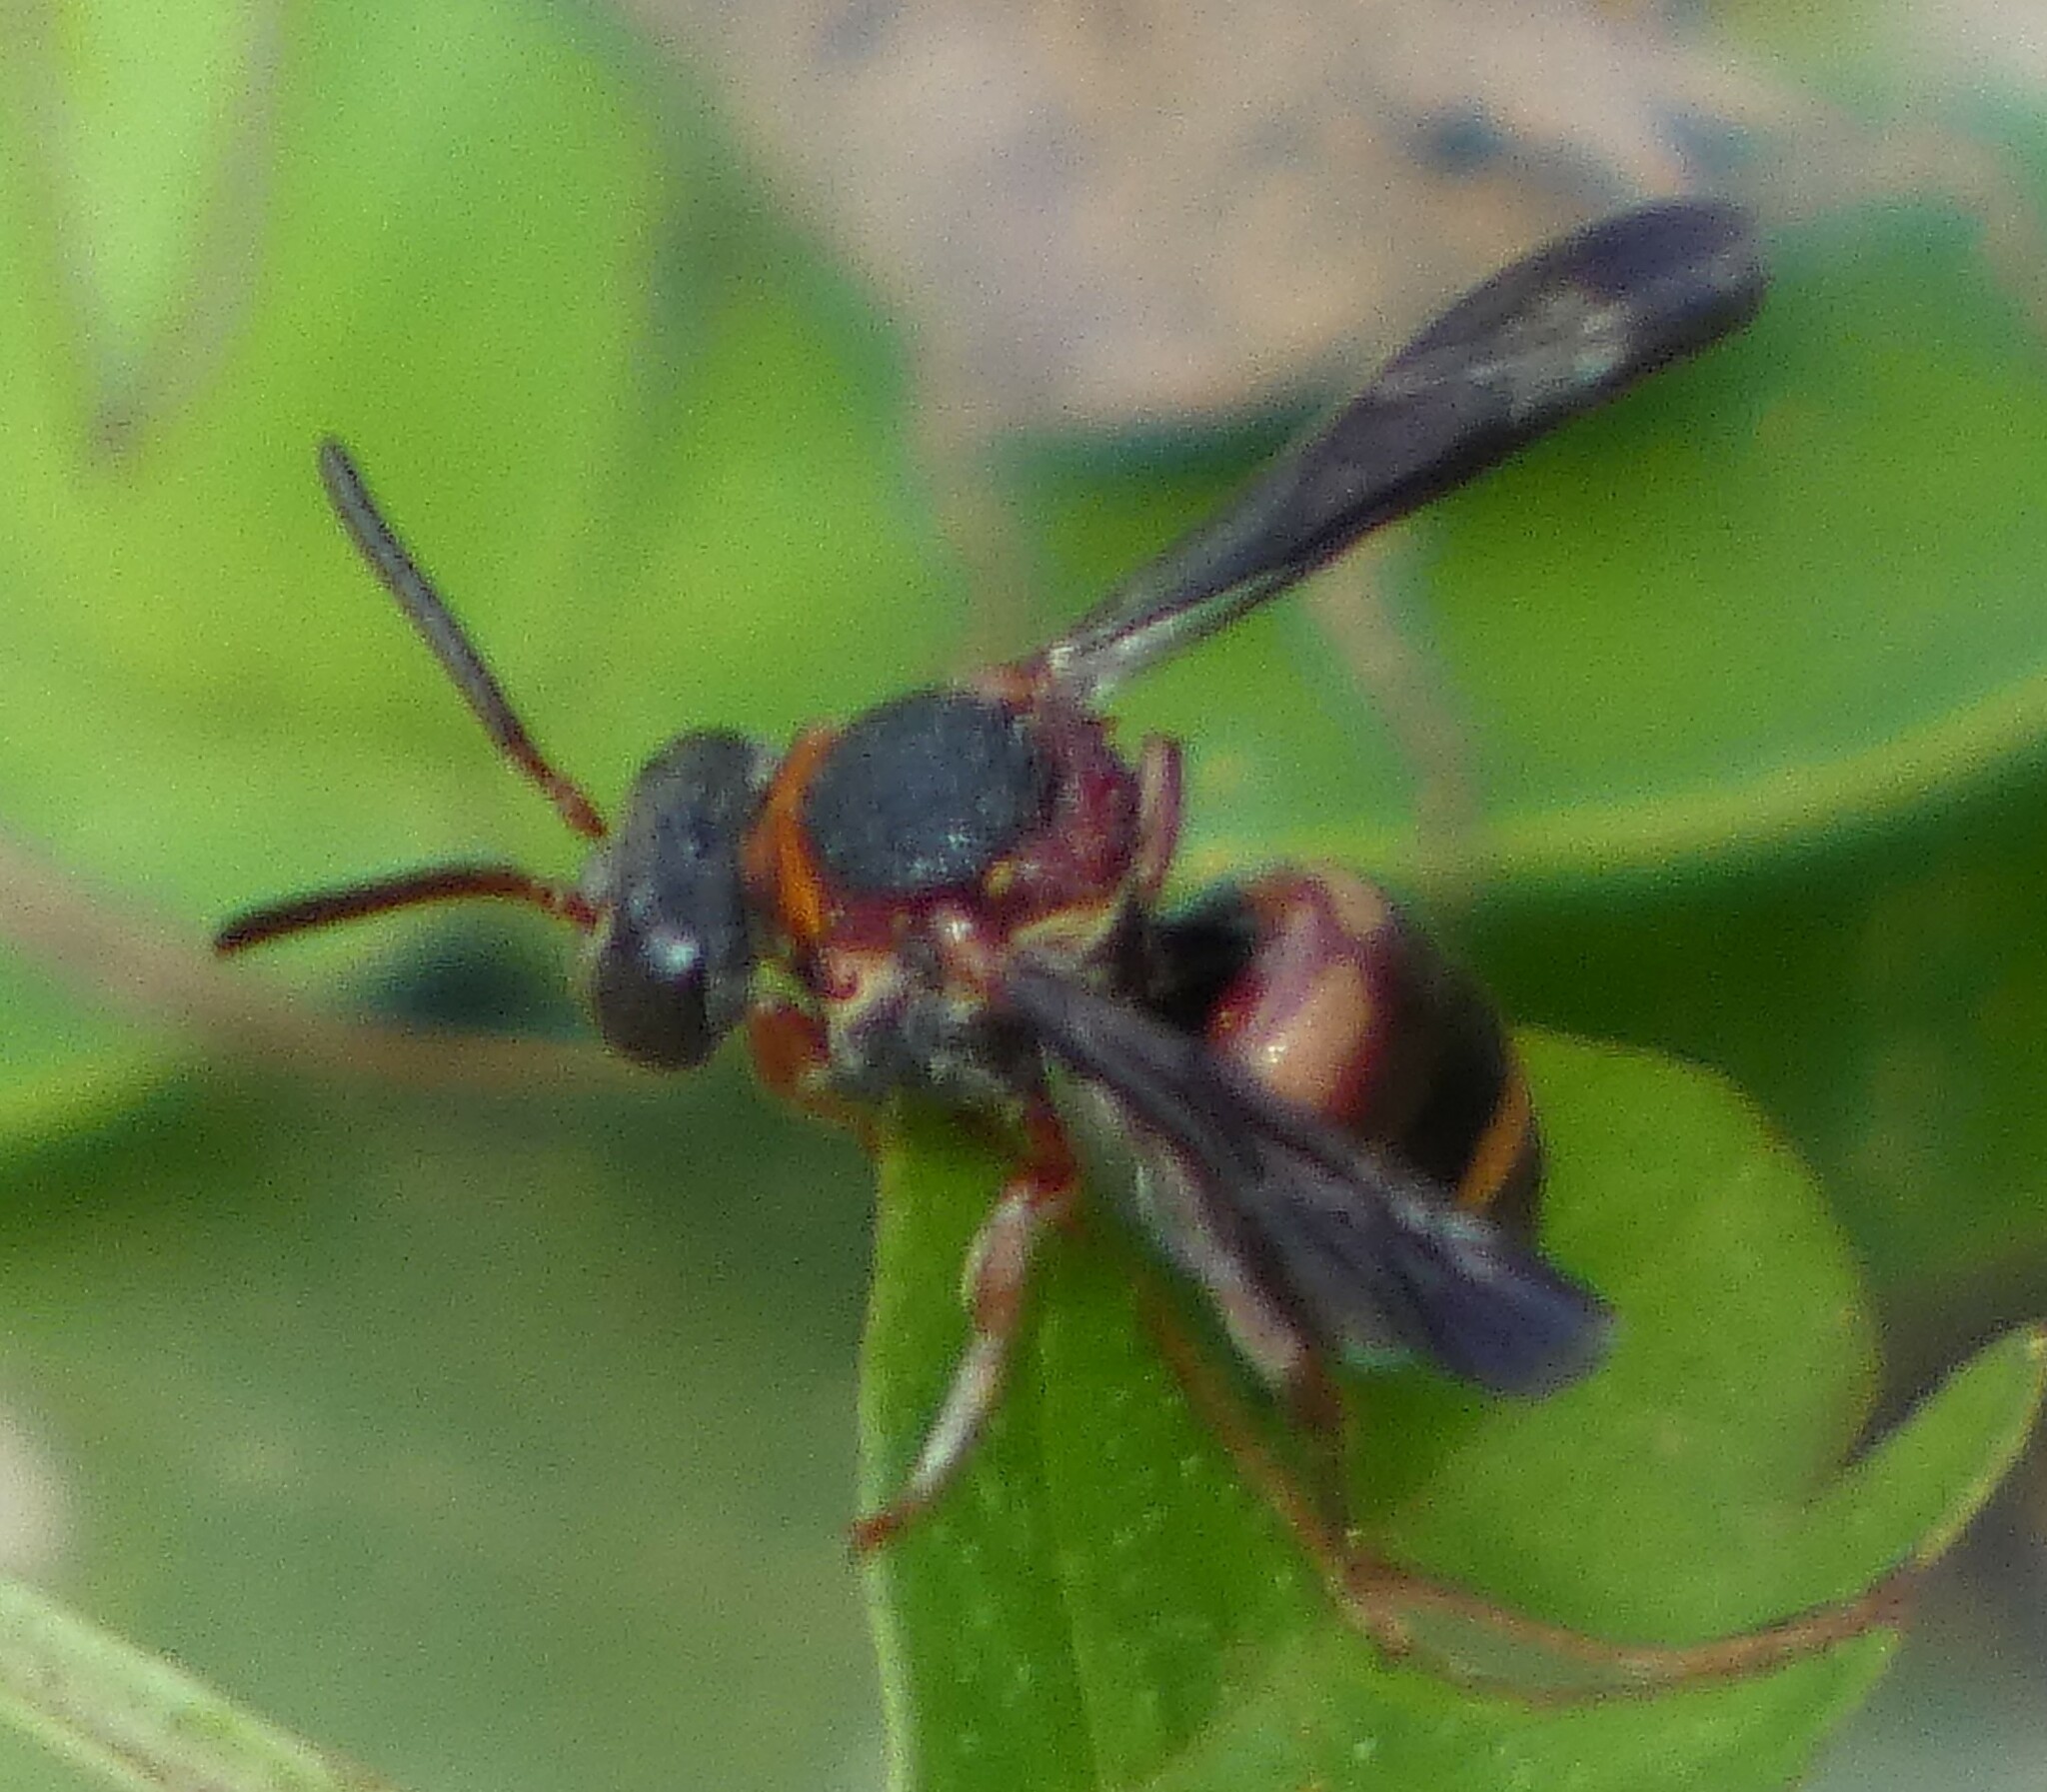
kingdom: Animalia
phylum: Arthropoda
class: Insecta
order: Hymenoptera
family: Apidae
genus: Epeolus
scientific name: Epeolus bifasciatus
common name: Two-banded cellophane-cuckoo
